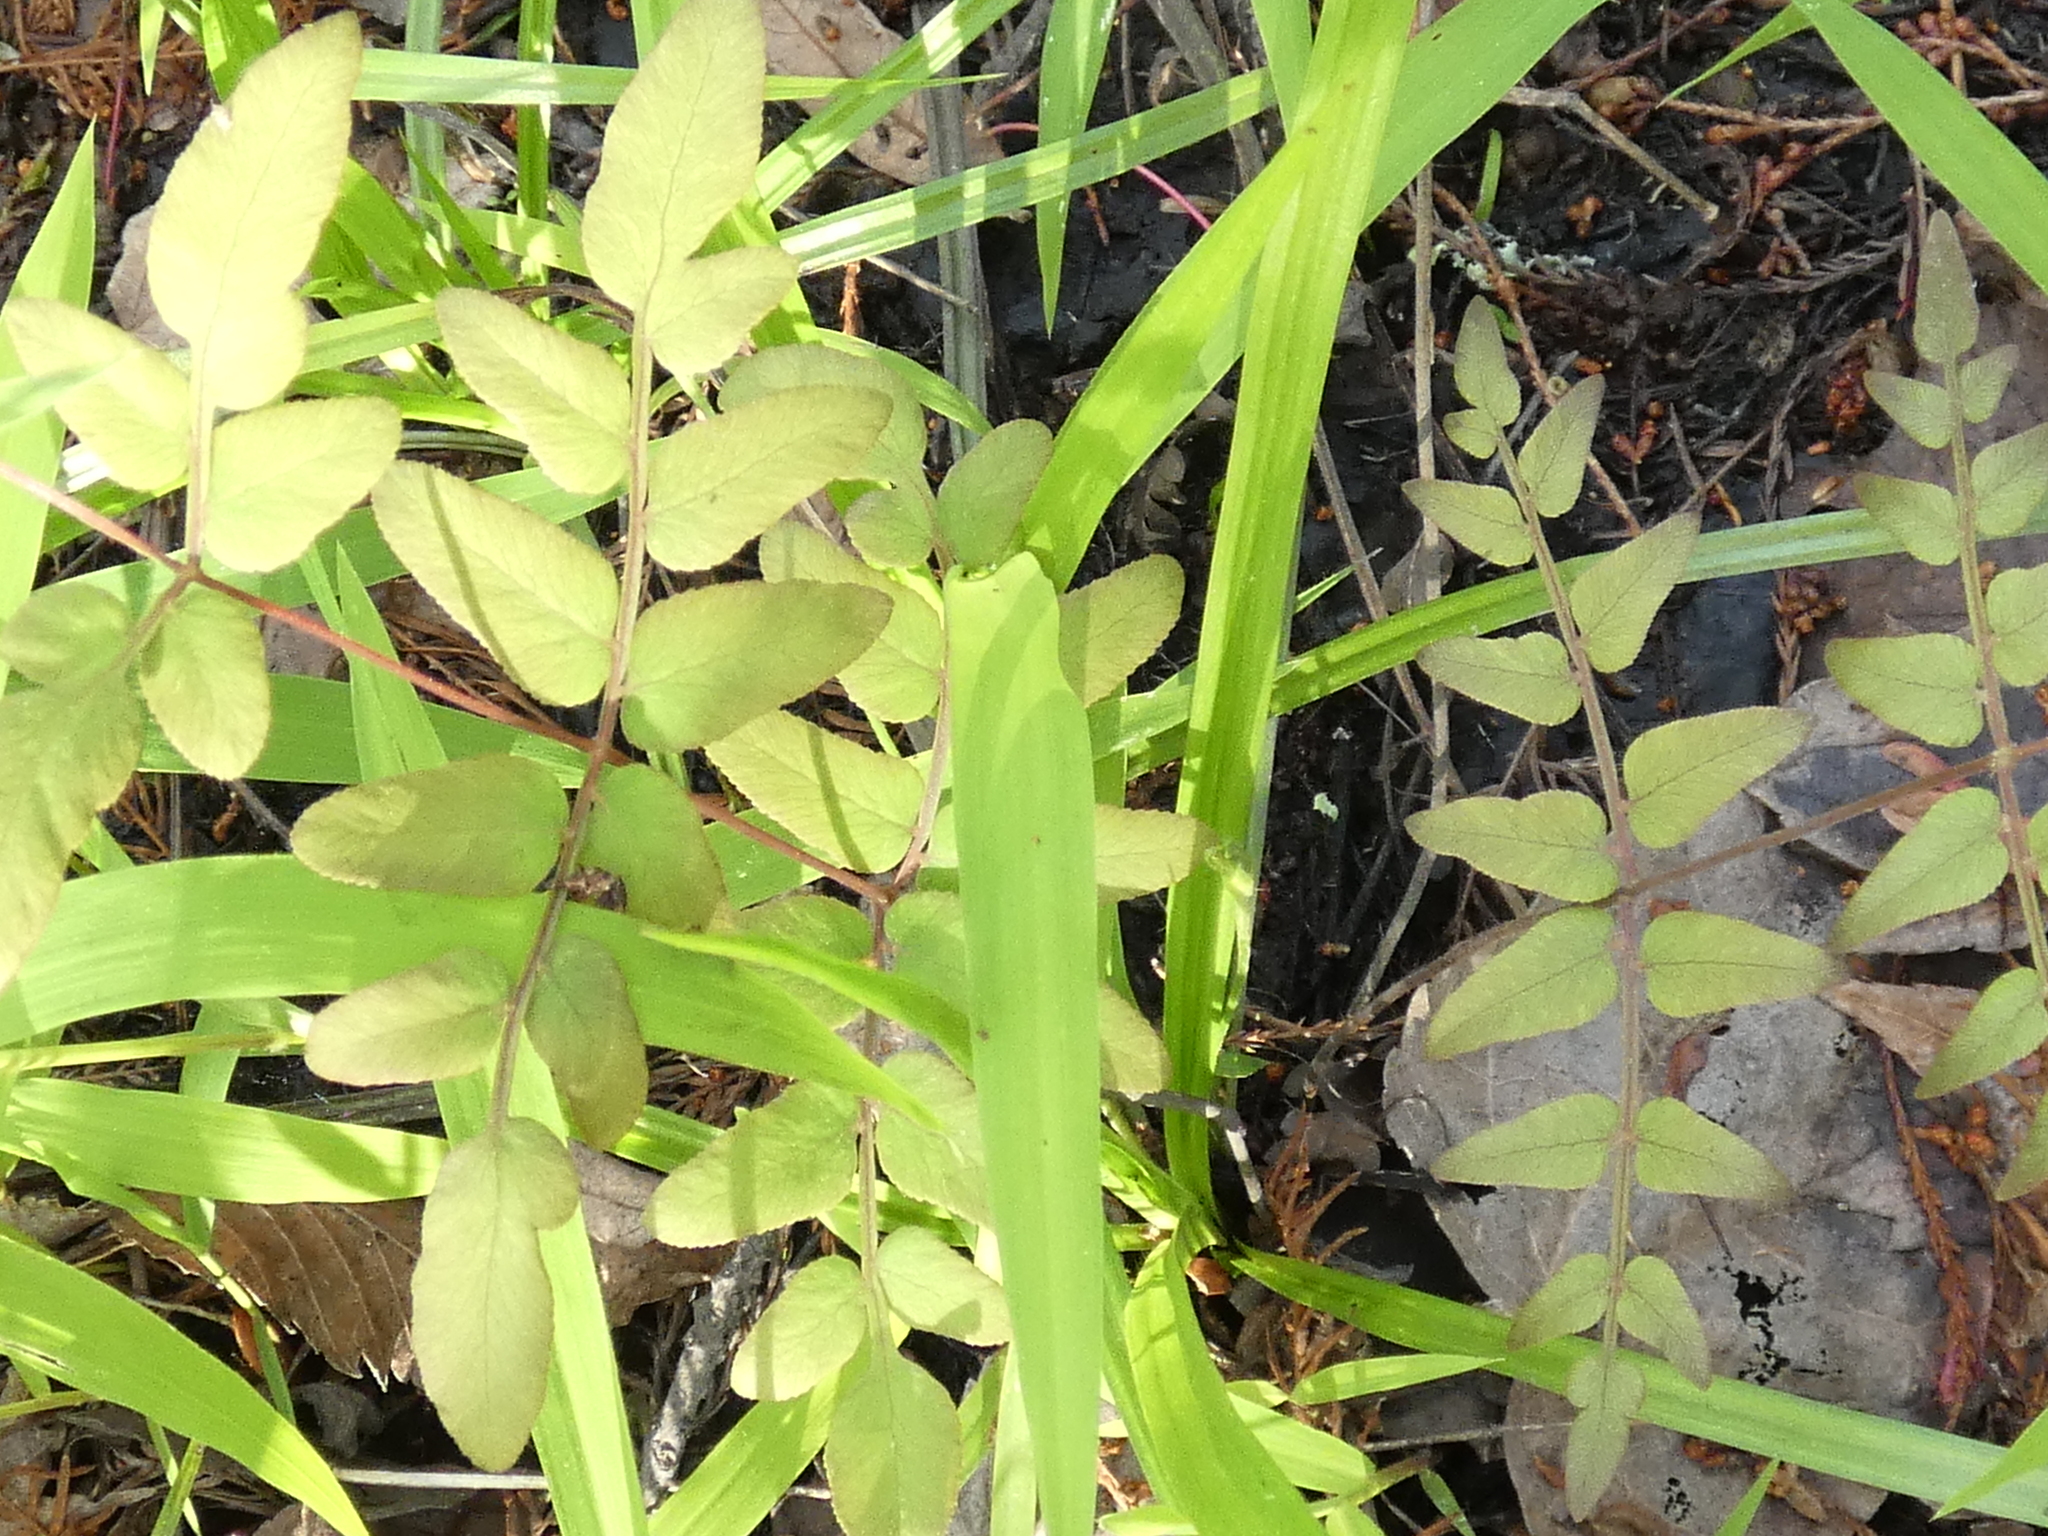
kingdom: Plantae
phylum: Tracheophyta
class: Polypodiopsida
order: Osmundales
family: Osmundaceae
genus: Osmunda
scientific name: Osmunda spectabilis
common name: American royal fern
